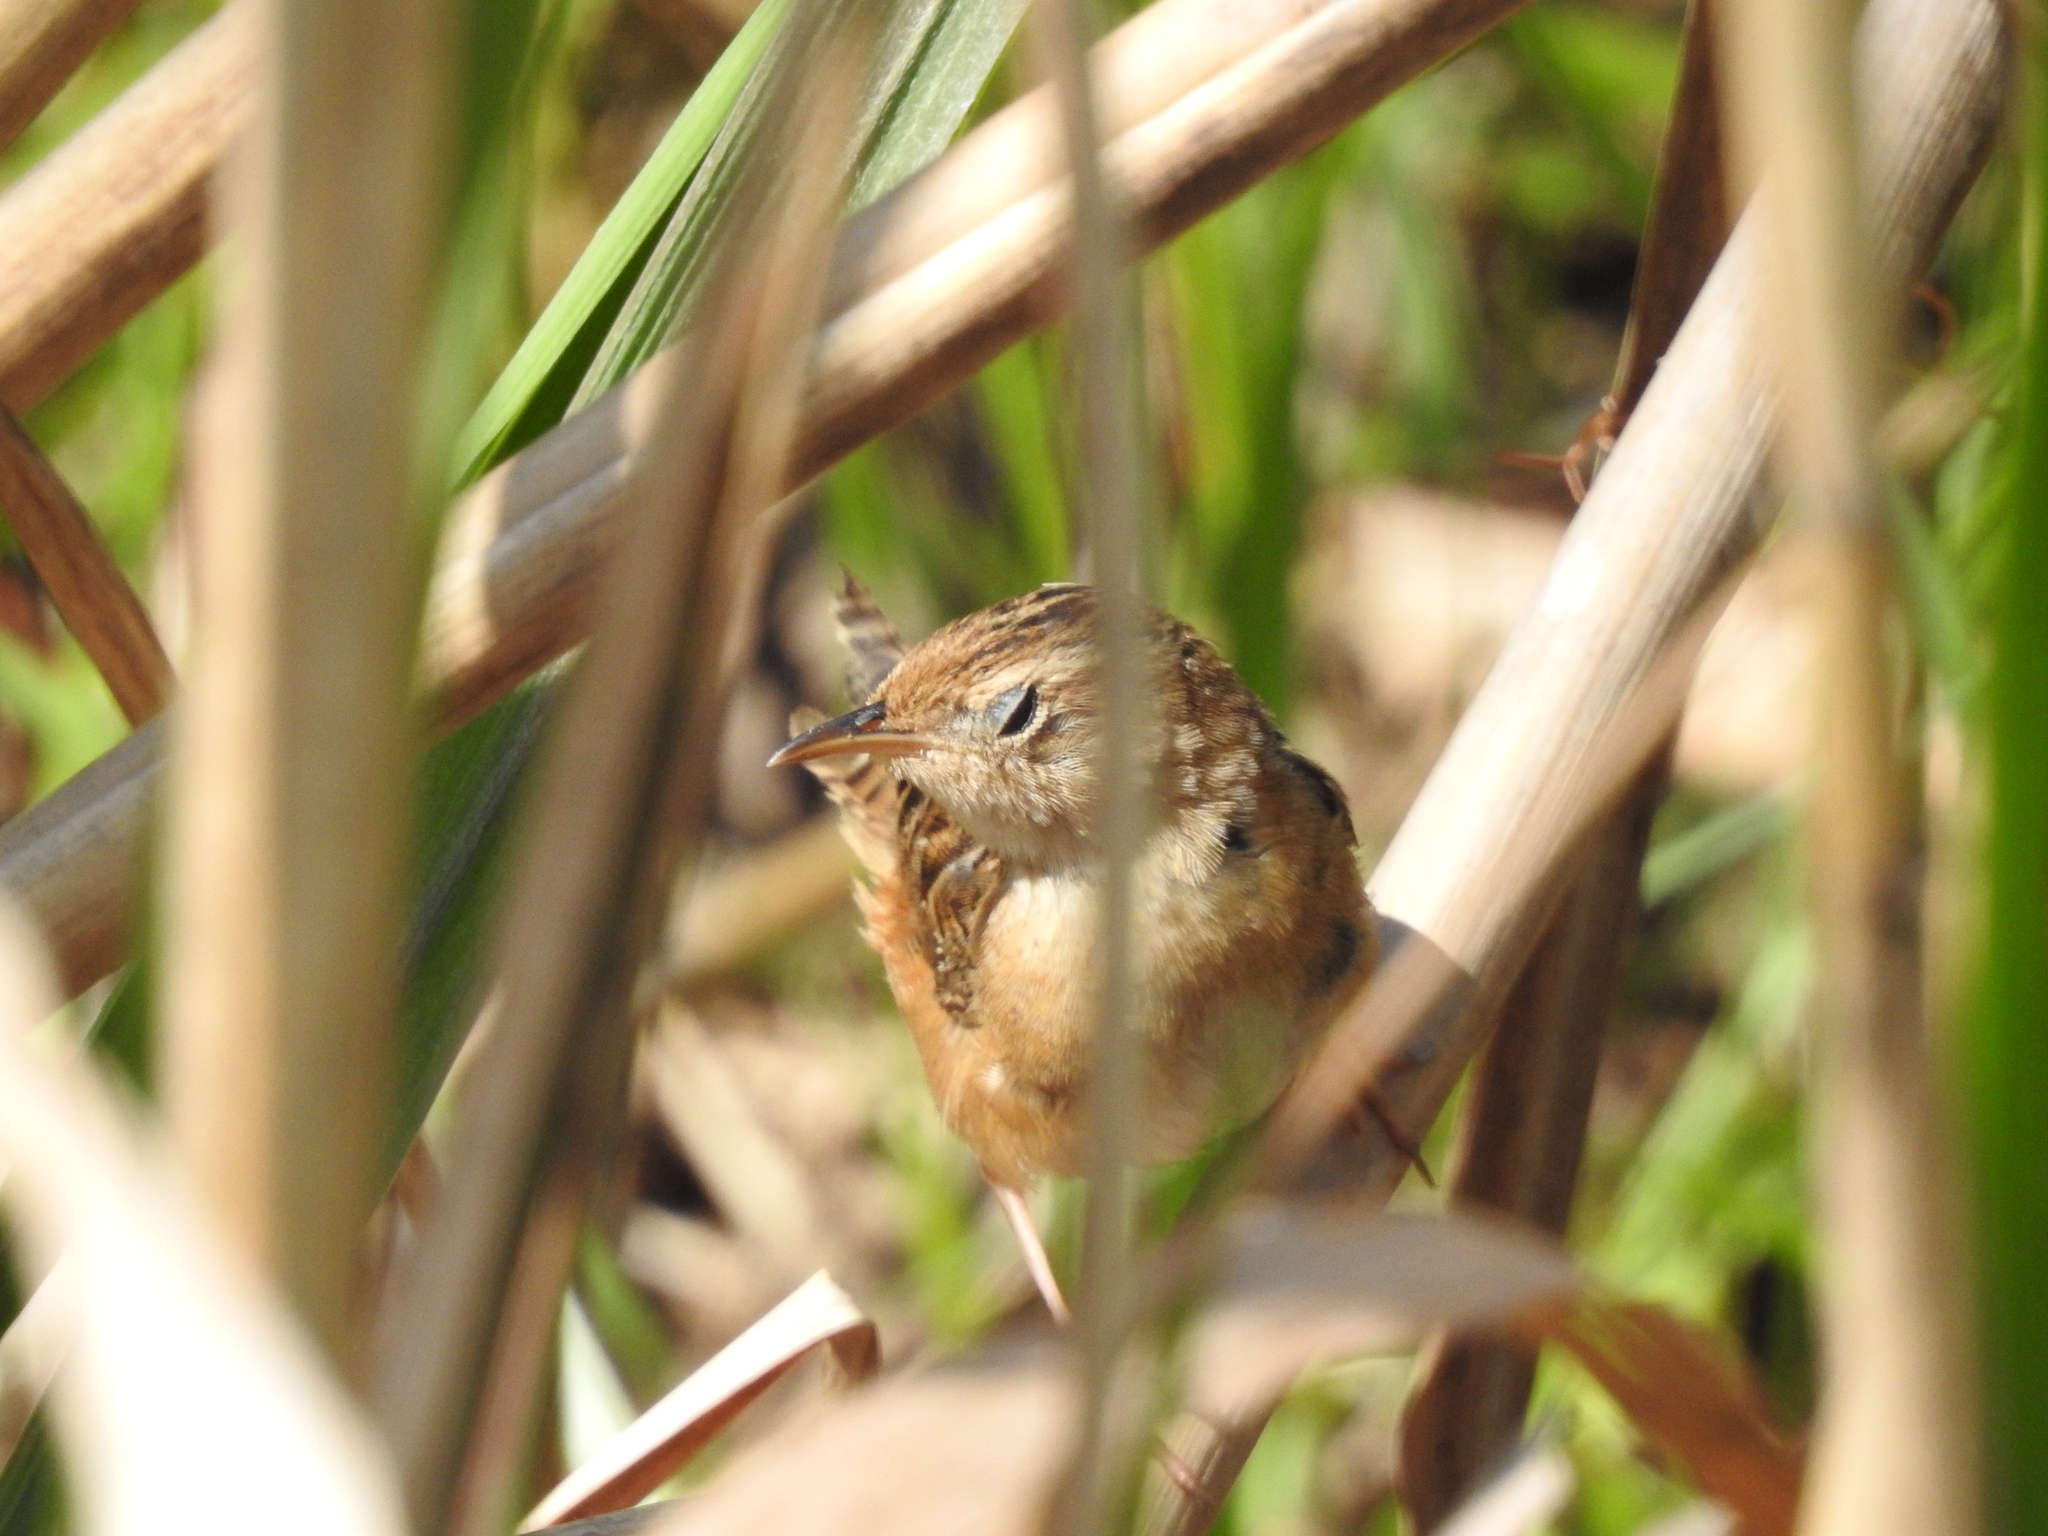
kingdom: Animalia
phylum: Chordata
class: Aves
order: Passeriformes
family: Troglodytidae
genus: Cistothorus
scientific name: Cistothorus platensis
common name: Sedge wren
